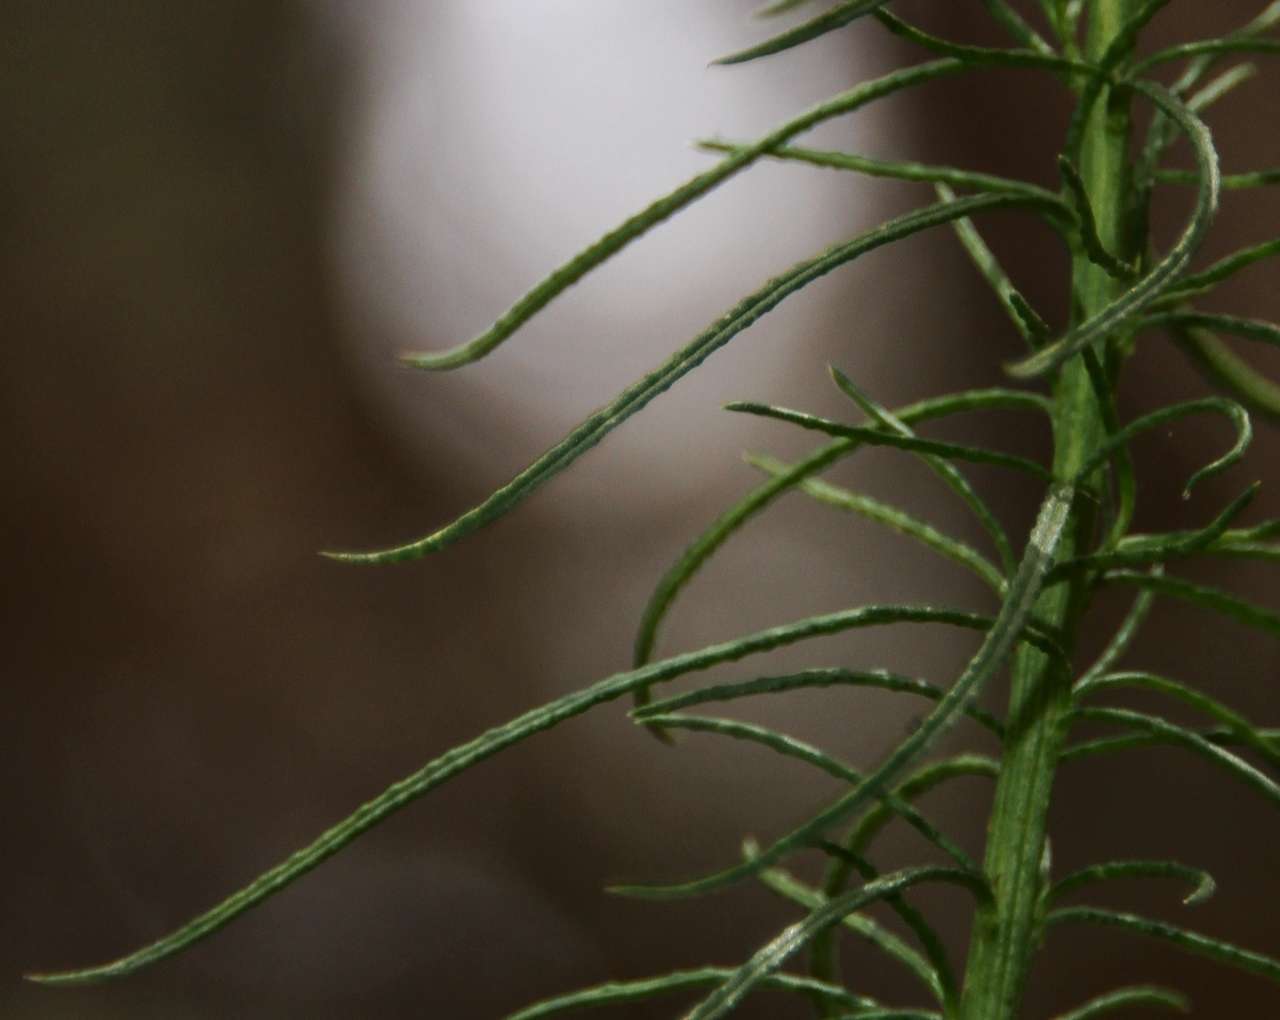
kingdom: Plantae
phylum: Tracheophyta
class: Magnoliopsida
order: Asterales
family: Asteraceae
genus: Spongotrichum
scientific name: Spongotrichum glandulosum
